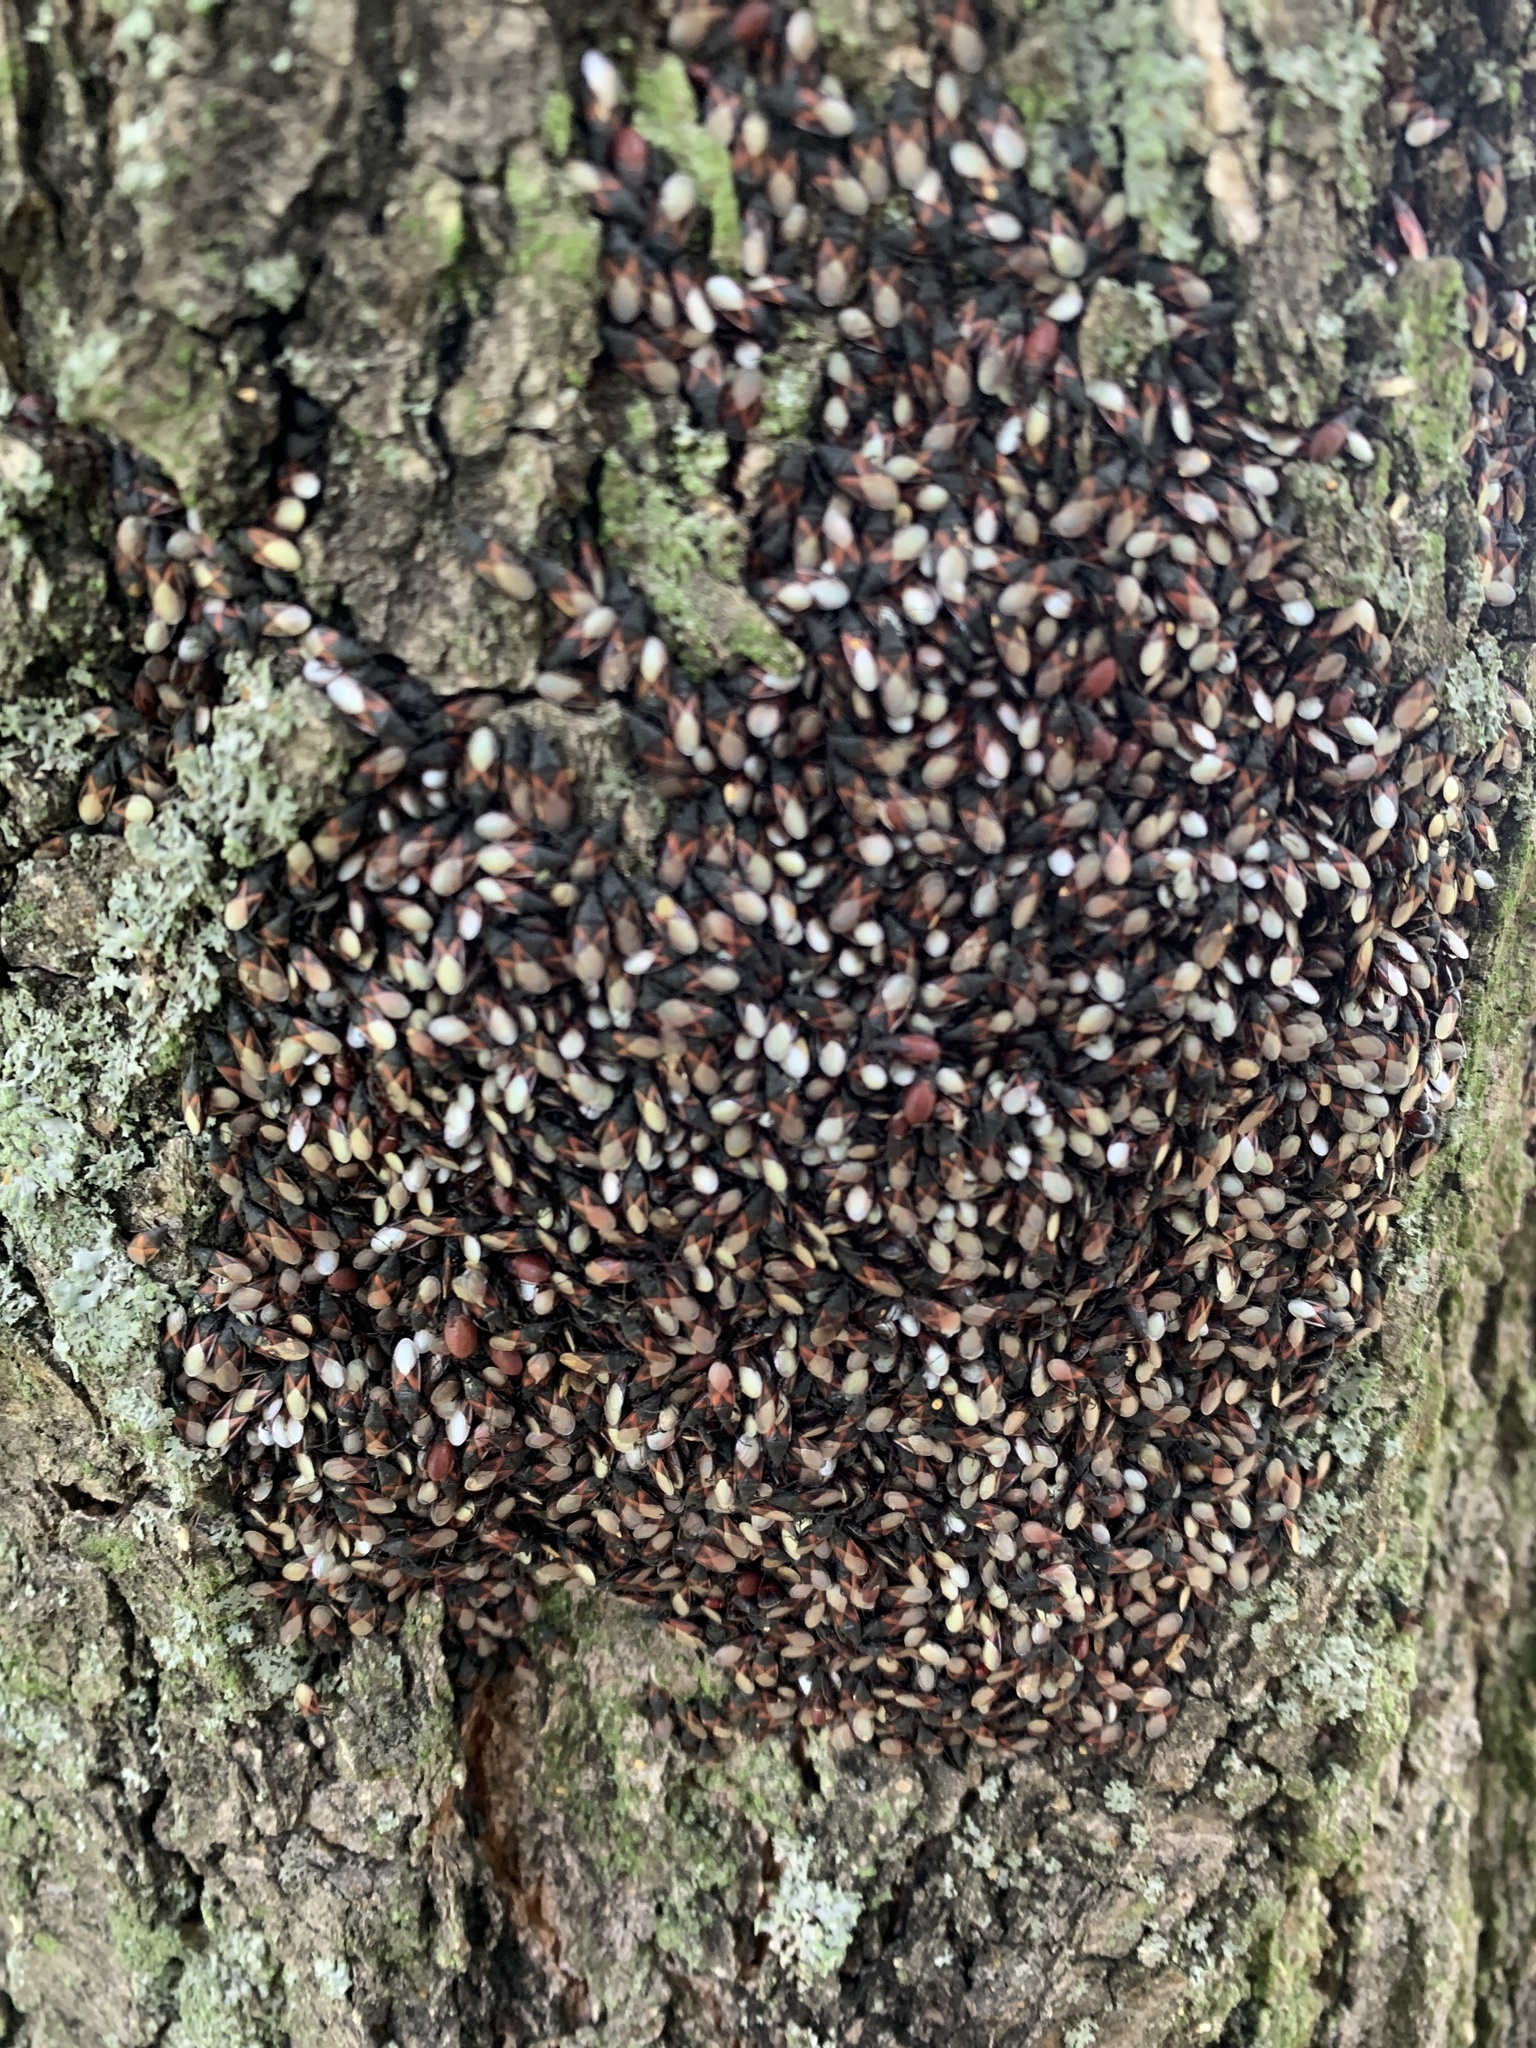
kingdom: Animalia
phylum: Arthropoda
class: Insecta
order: Hemiptera
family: Oxycarenidae
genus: Oxycarenus
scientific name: Oxycarenus lavaterae
